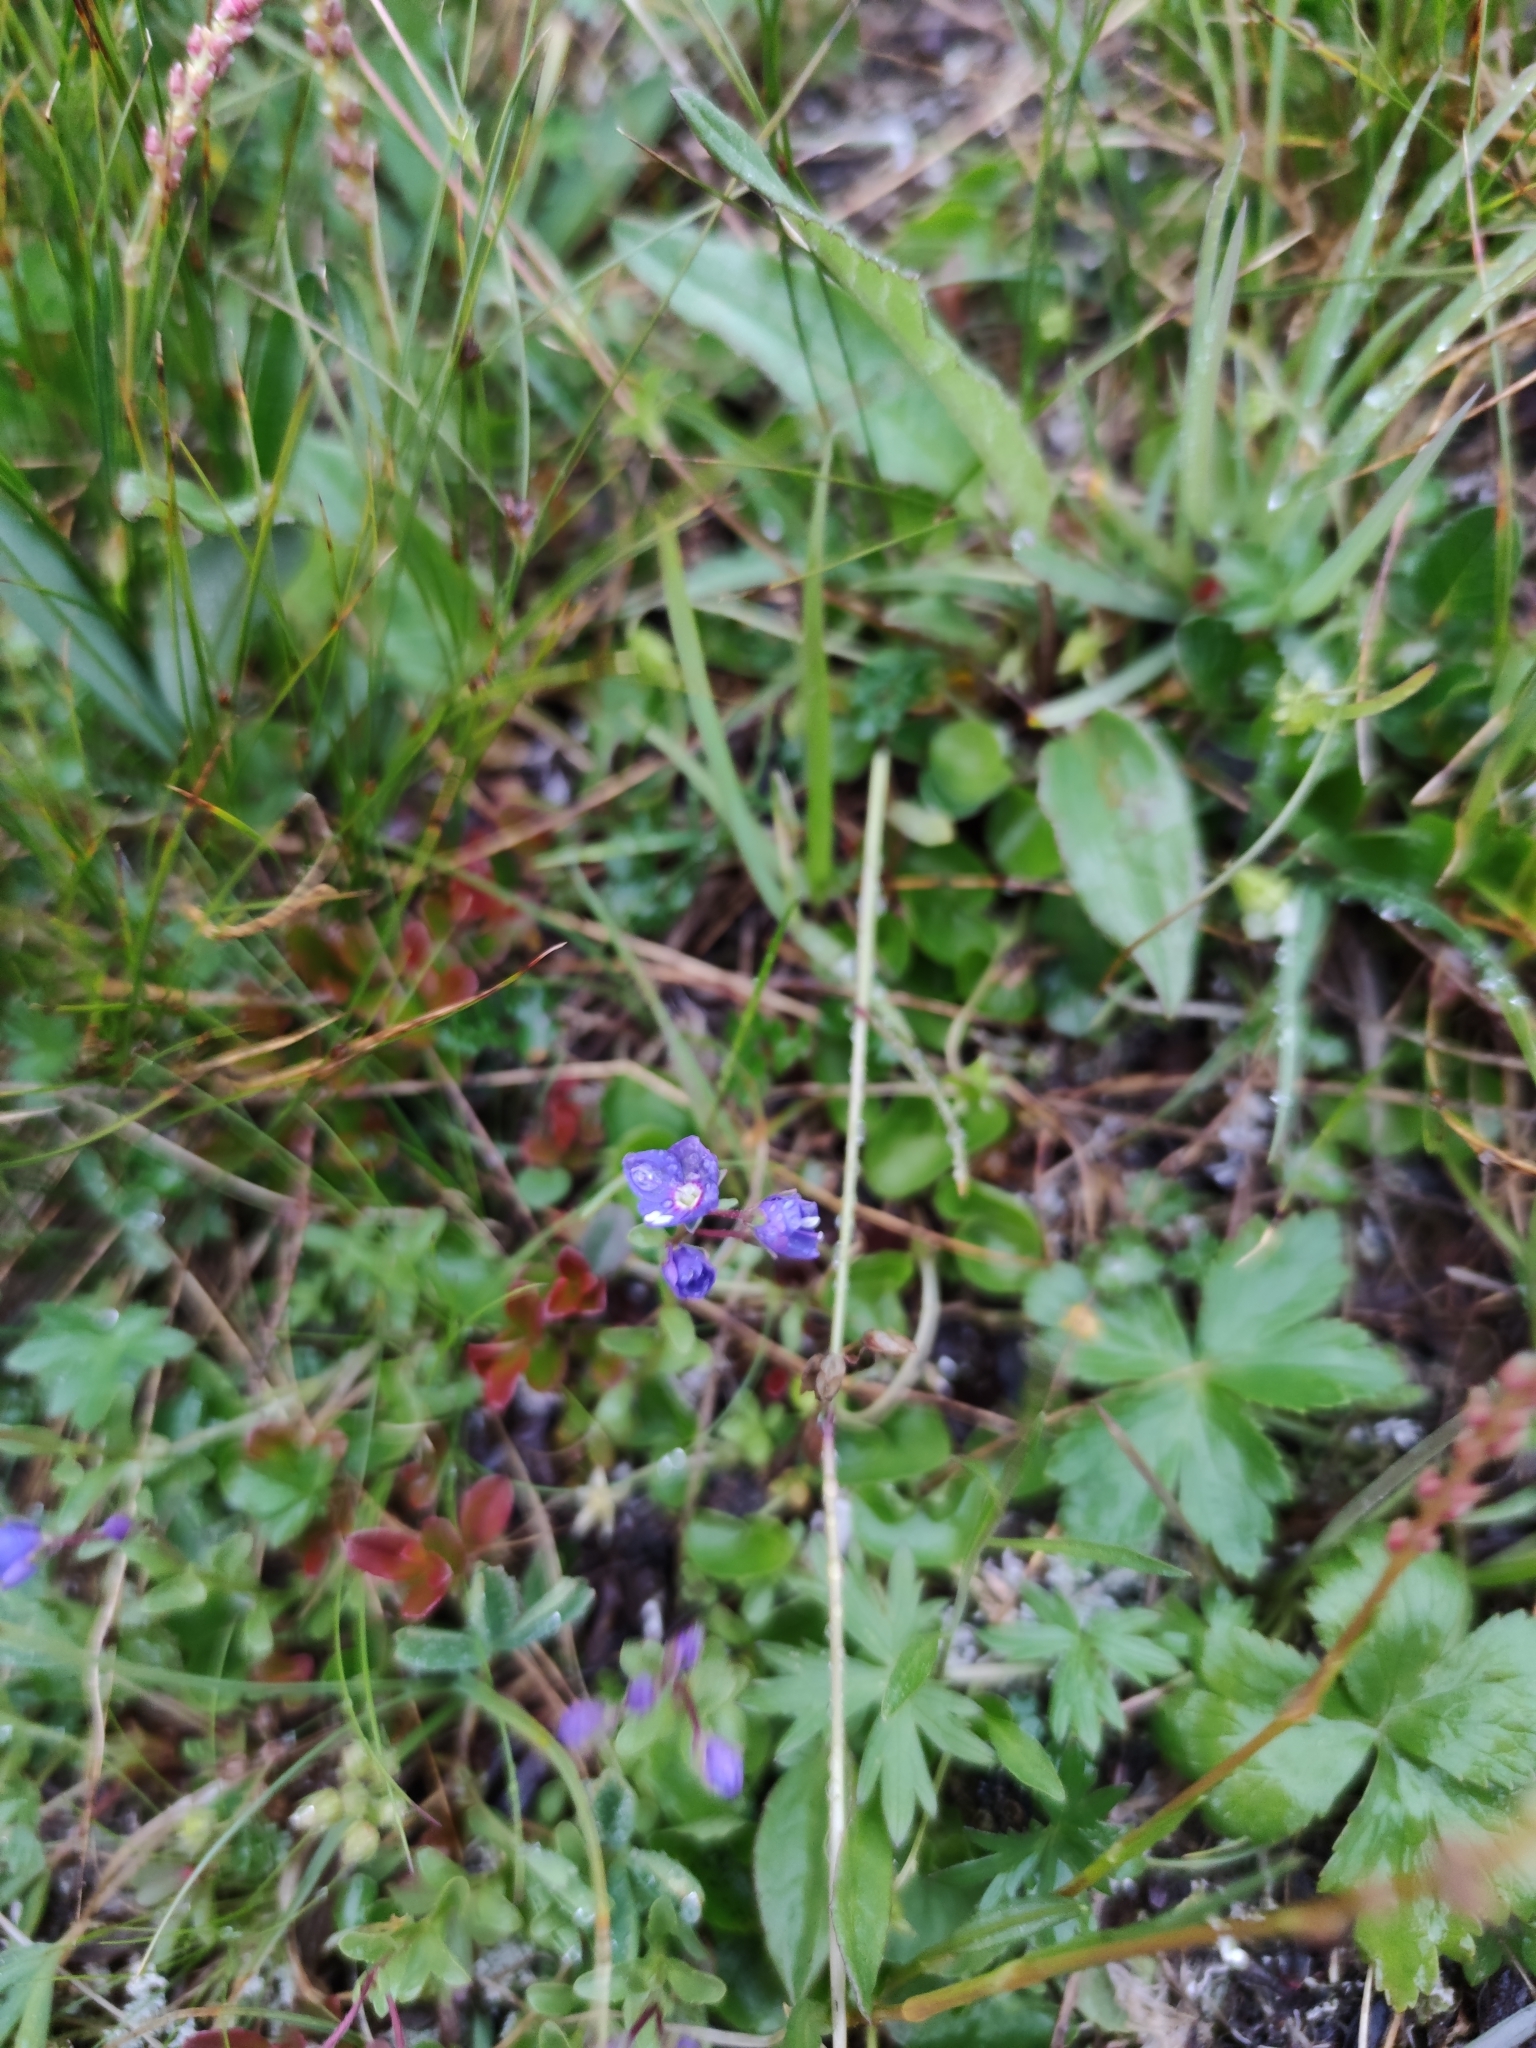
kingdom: Plantae
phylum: Tracheophyta
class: Magnoliopsida
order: Lamiales
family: Plantaginaceae
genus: Veronica
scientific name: Veronica fruticans
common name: Rock speedwell
